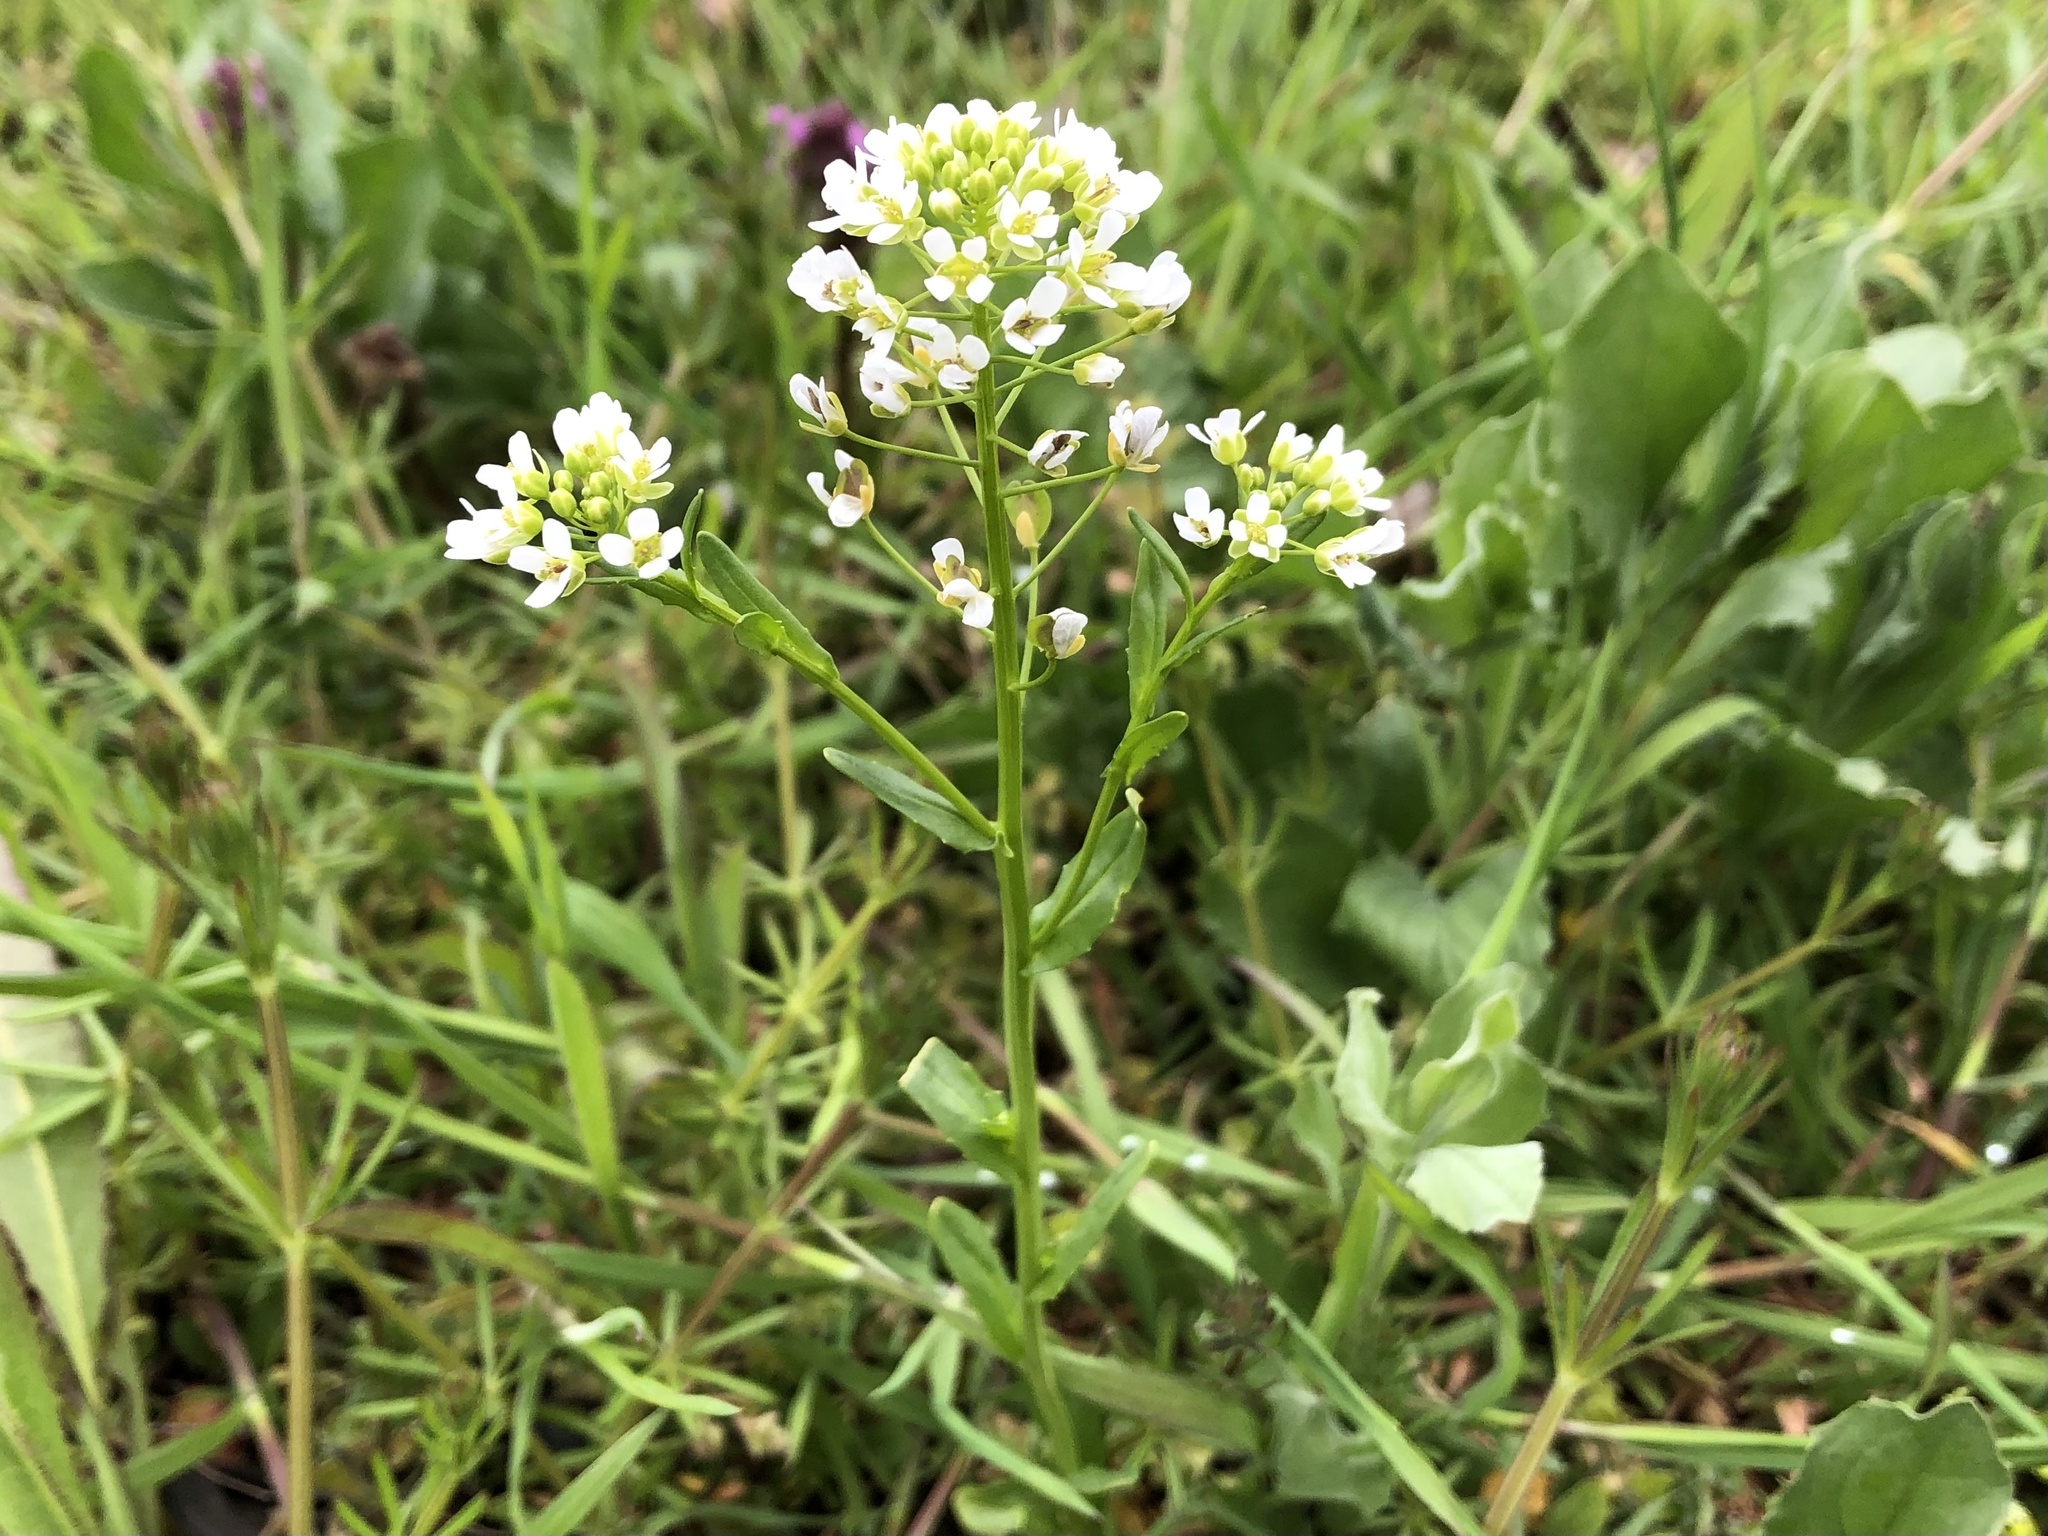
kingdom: Plantae
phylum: Tracheophyta
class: Magnoliopsida
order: Brassicales
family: Brassicaceae
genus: Thlaspi
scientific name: Thlaspi arvense
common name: Field pennycress
